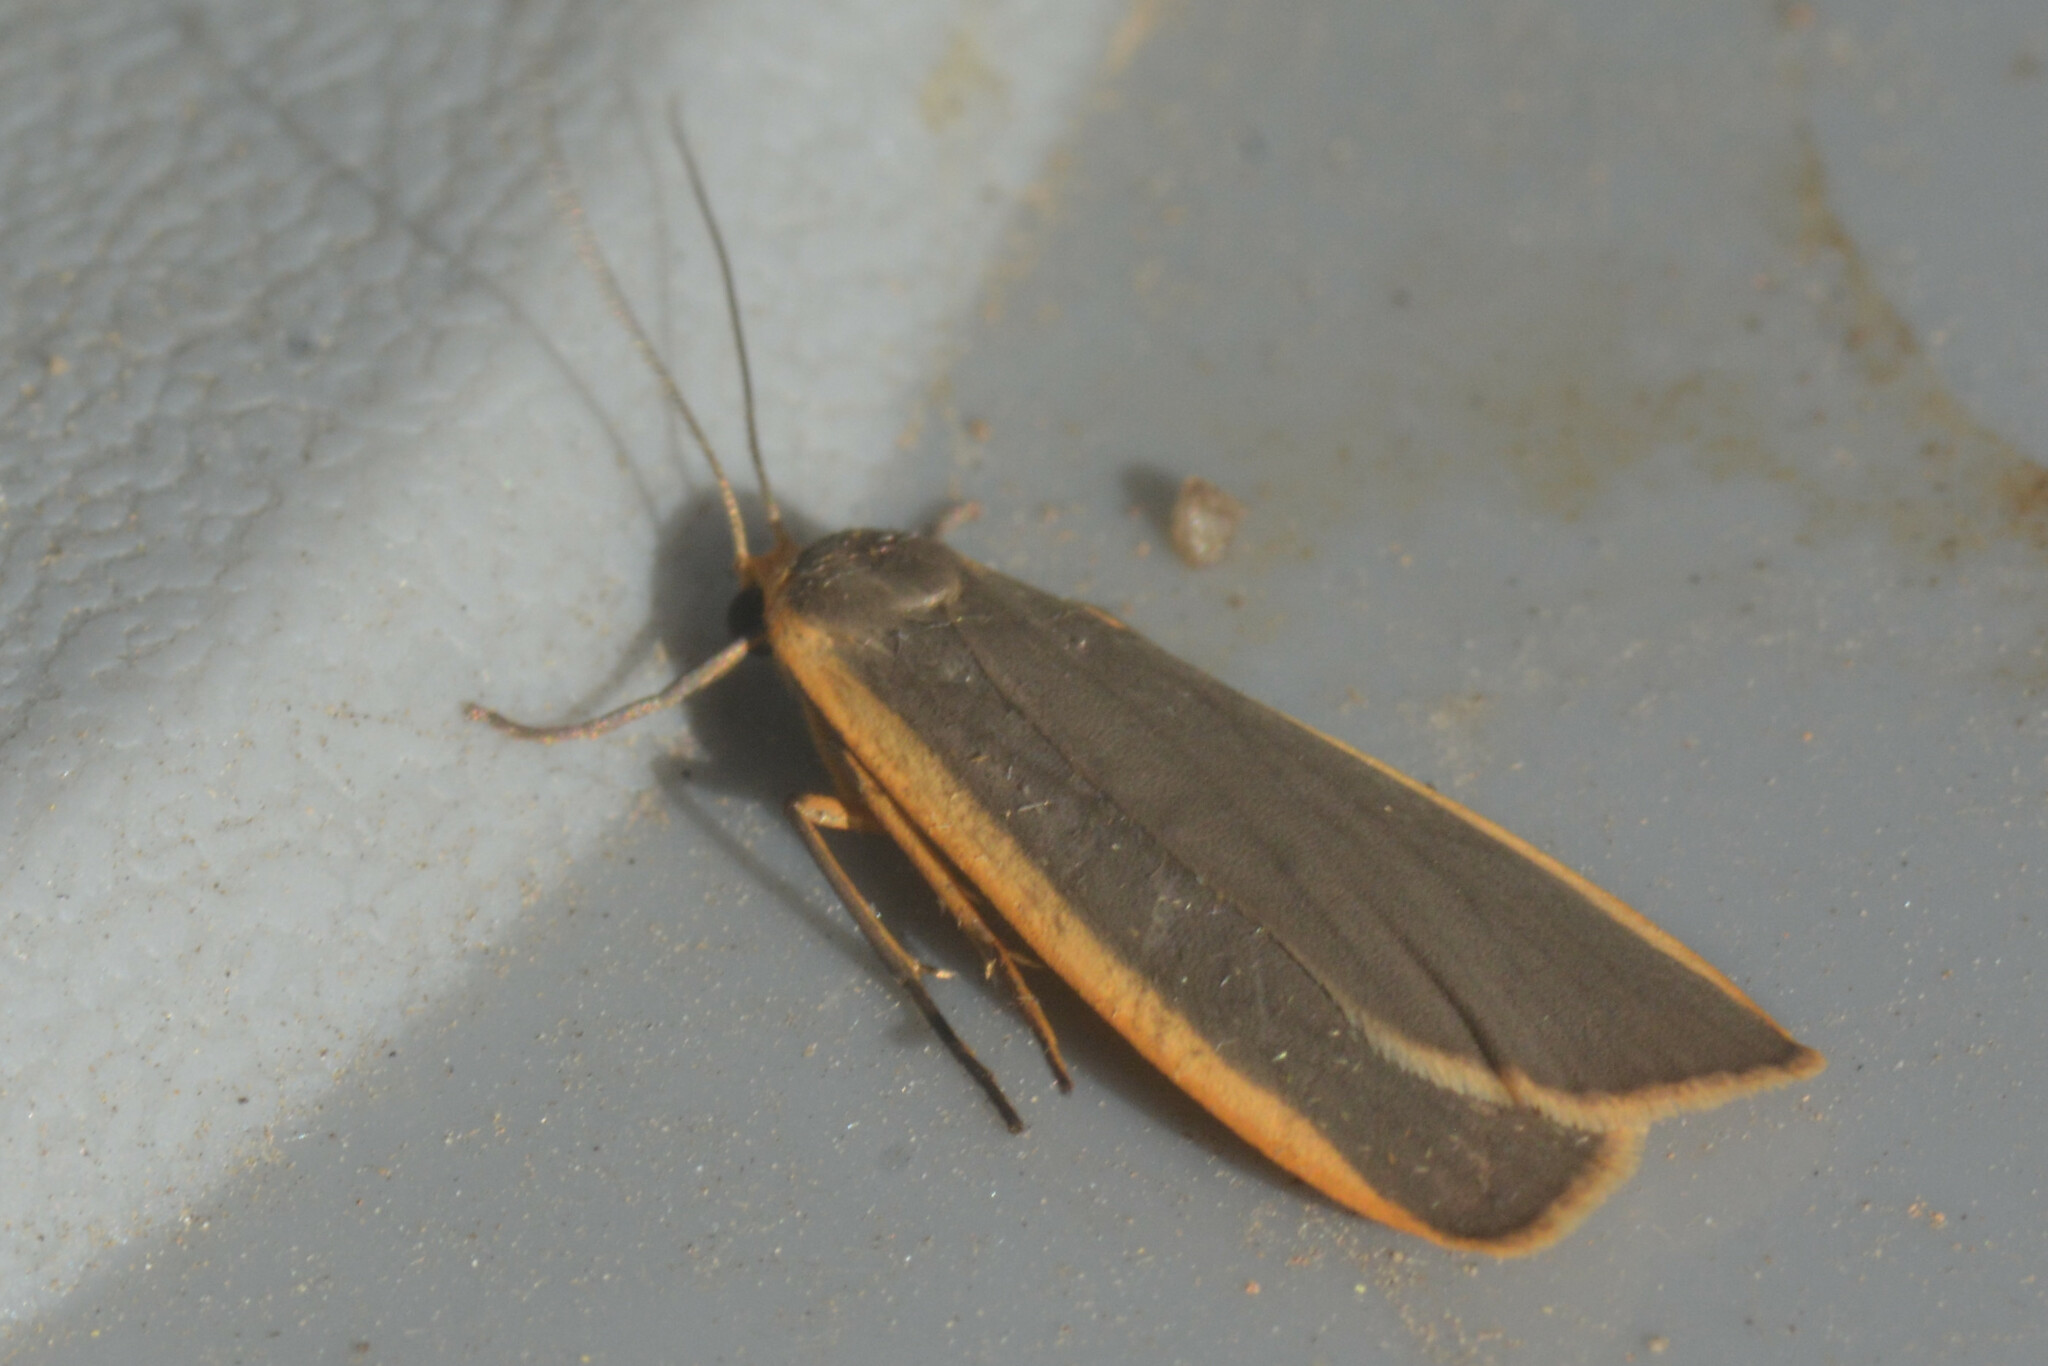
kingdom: Animalia
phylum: Arthropoda
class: Insecta
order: Lepidoptera
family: Erebidae
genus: Nyea
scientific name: Nyea lurideola
